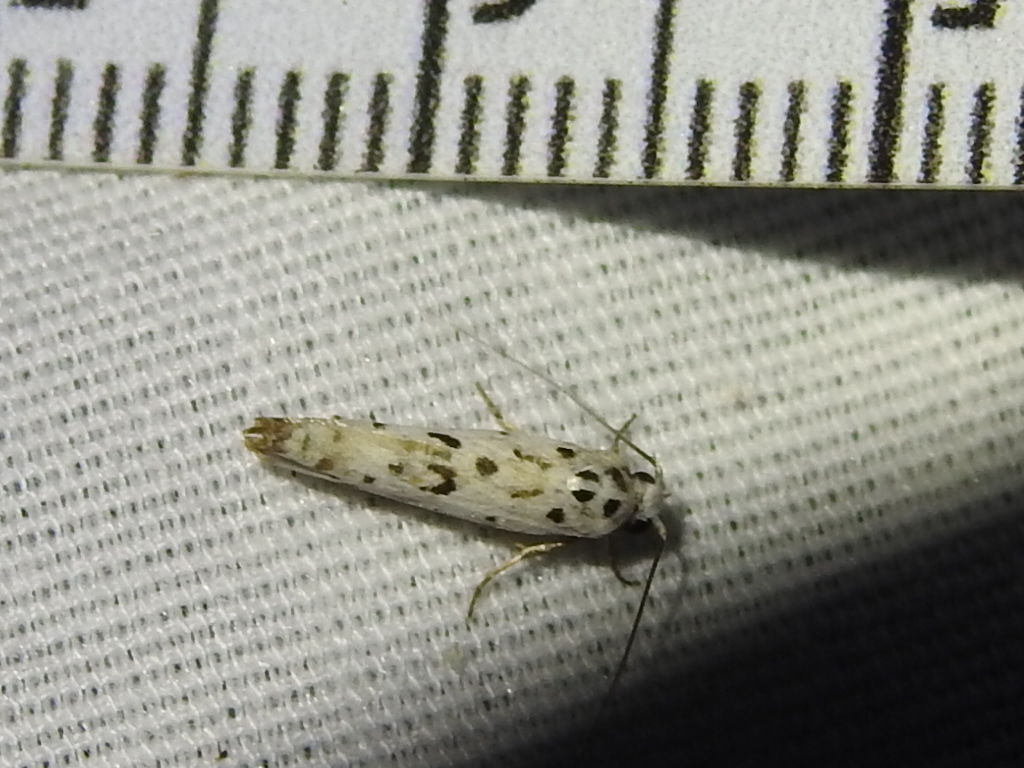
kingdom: Animalia
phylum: Arthropoda
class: Insecta
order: Lepidoptera
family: Ethmiidae
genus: Ethmia
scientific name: Ethmia bittenella
